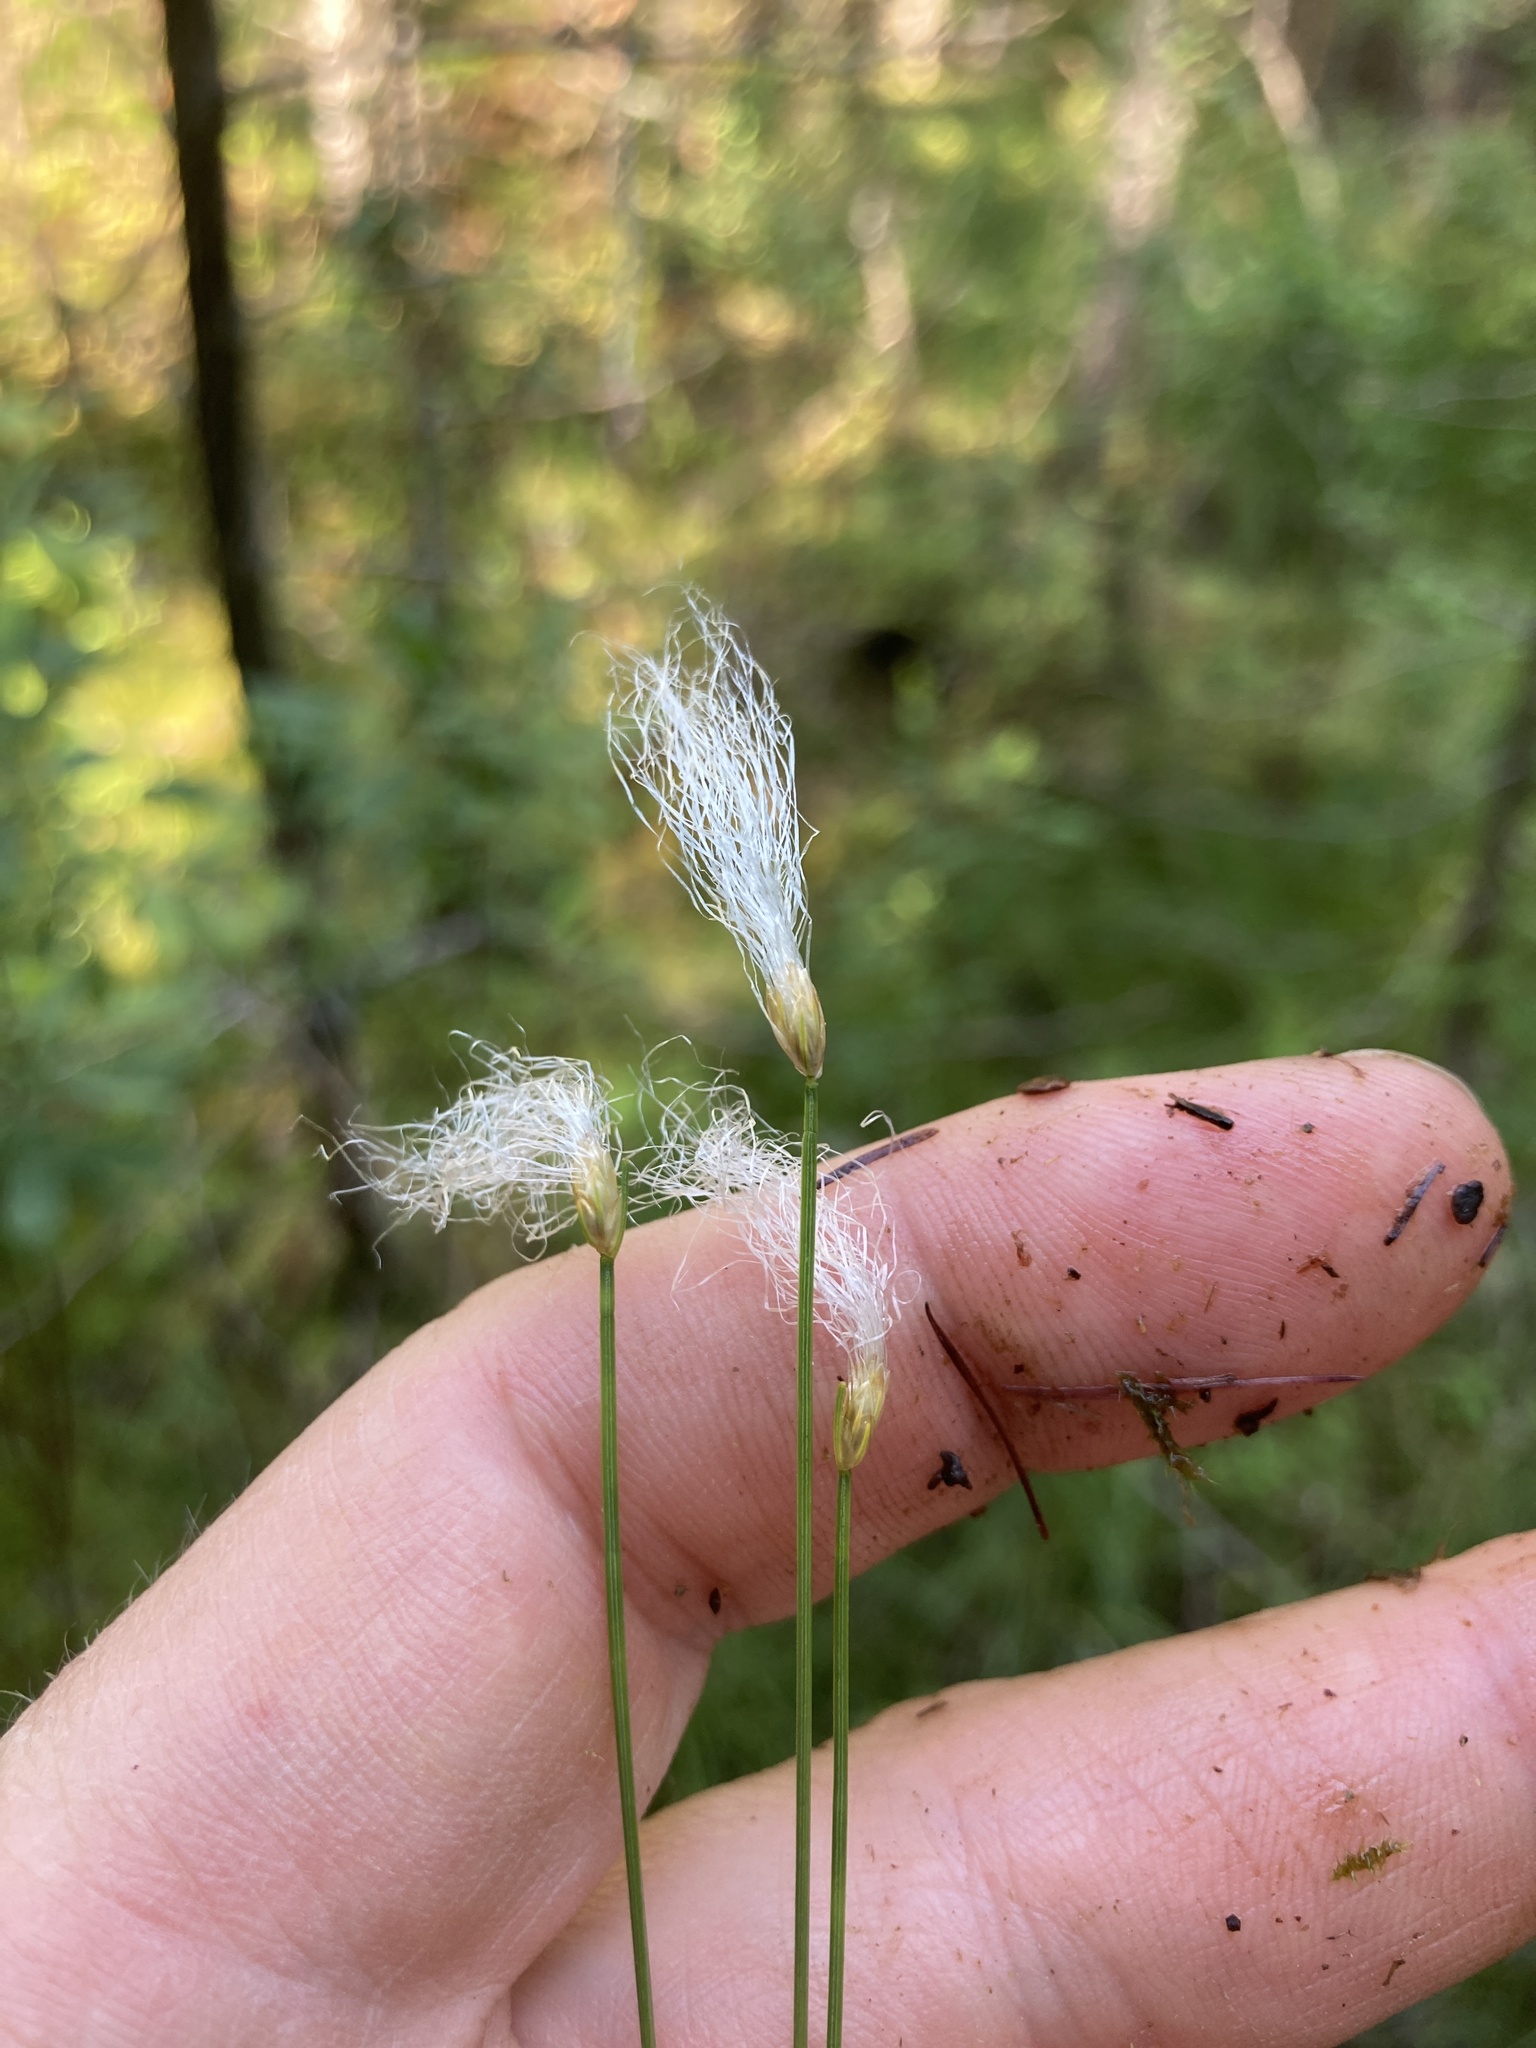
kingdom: Plantae
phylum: Tracheophyta
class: Liliopsida
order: Poales
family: Cyperaceae
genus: Trichophorum
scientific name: Trichophorum alpinum
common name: Alpine bulrush
